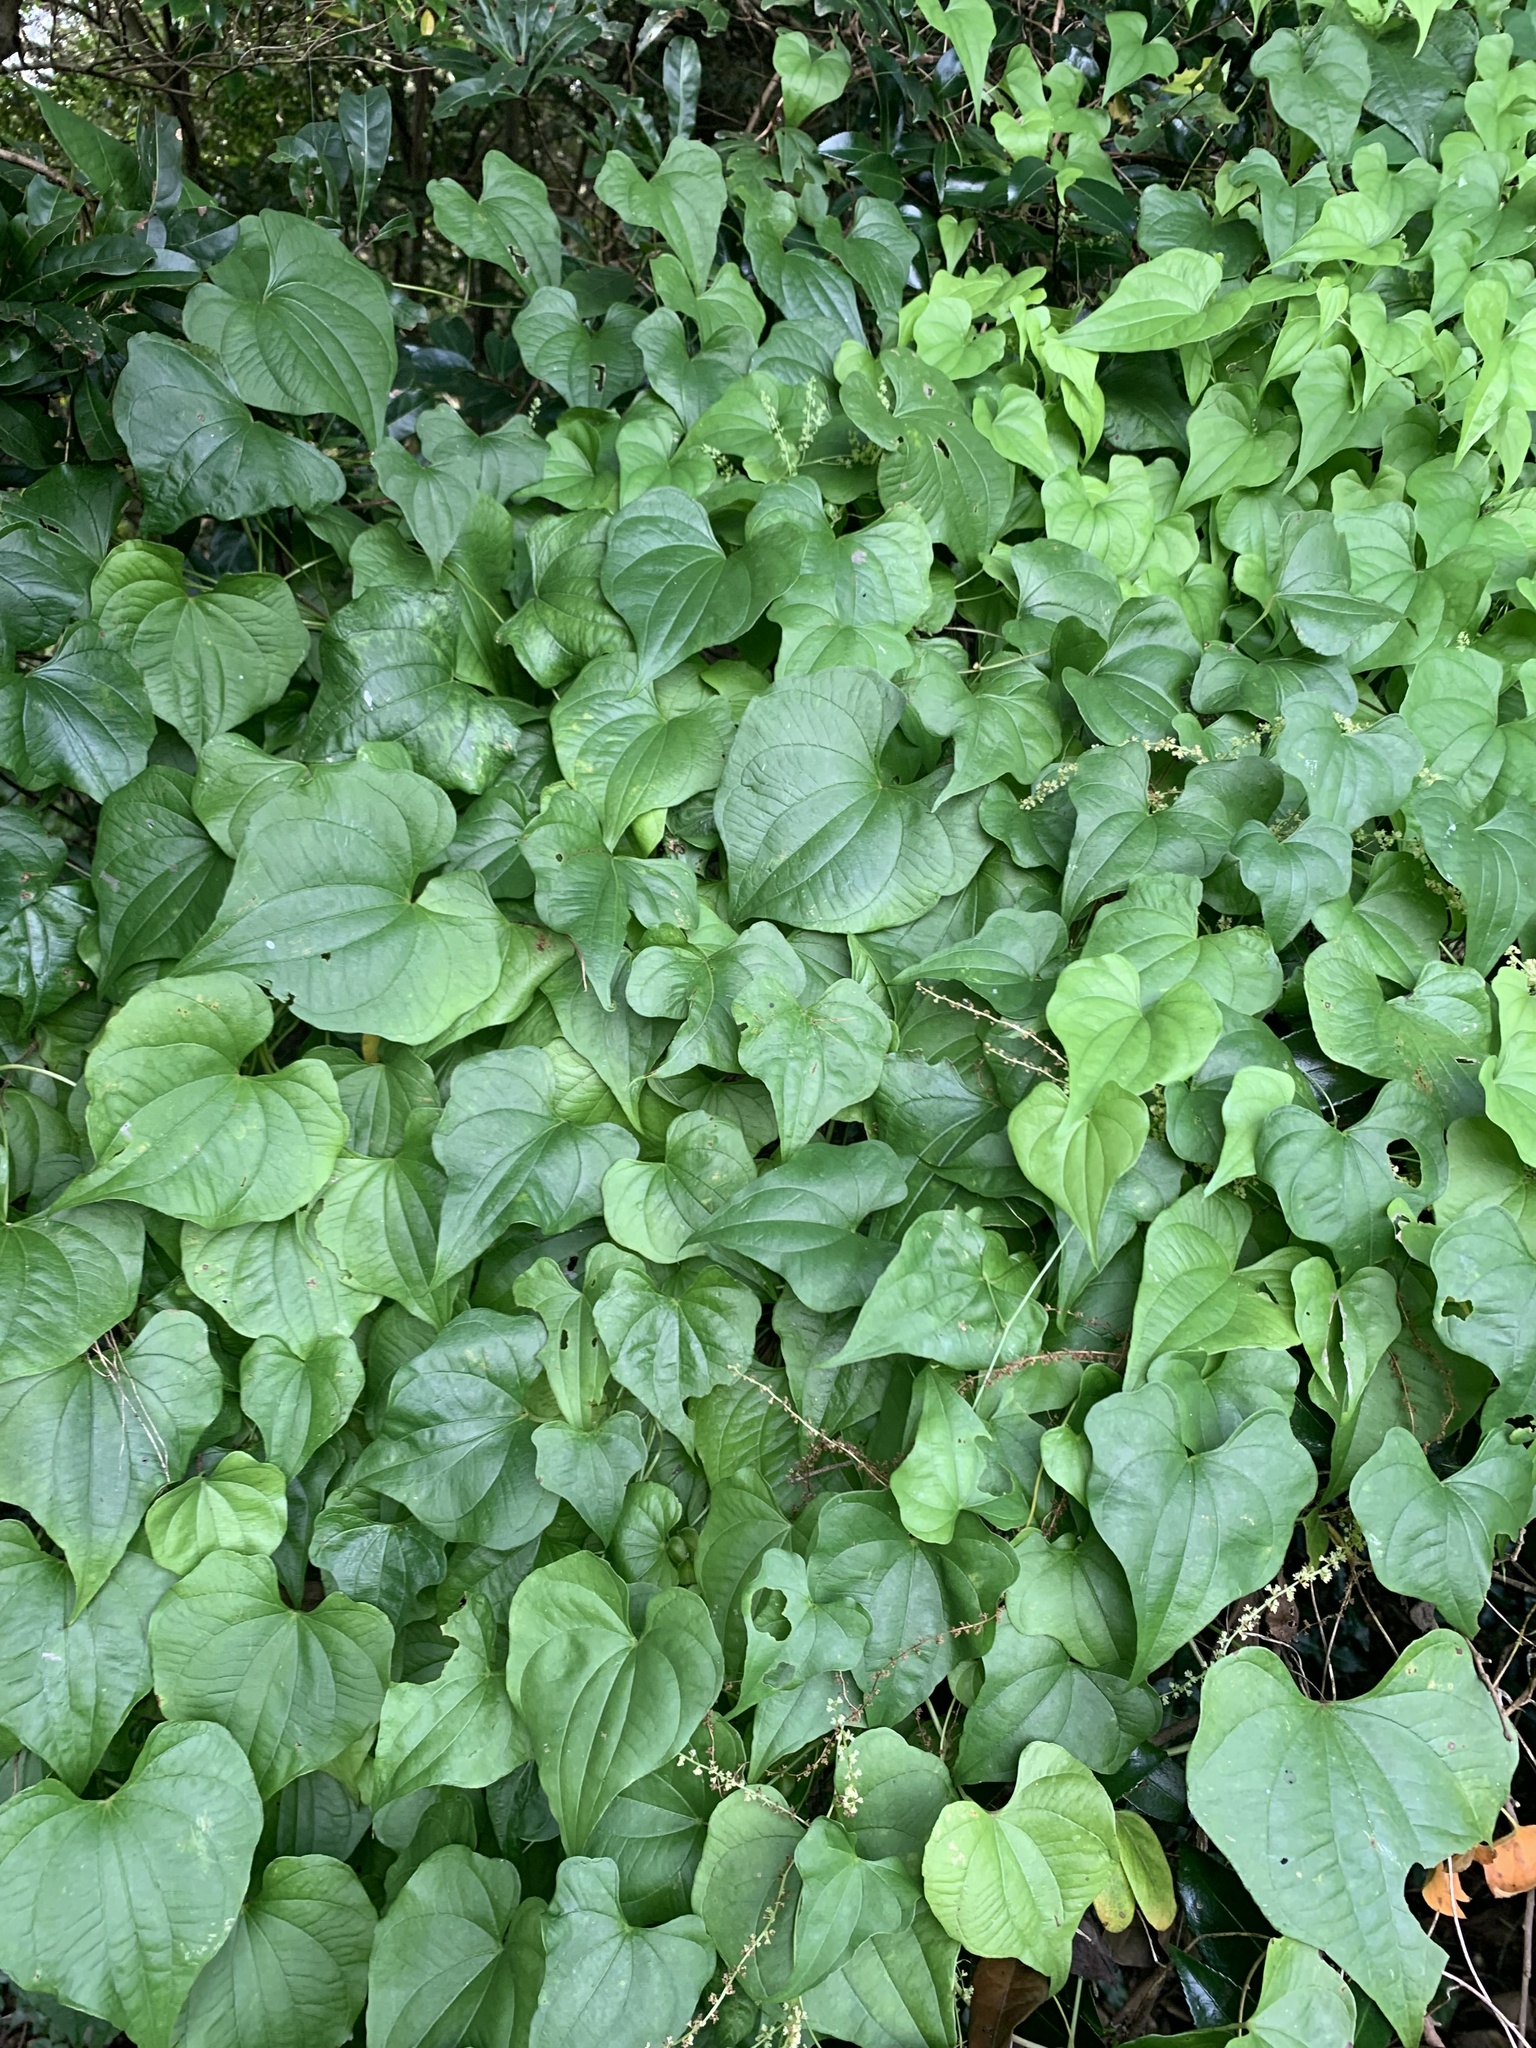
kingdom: Plantae
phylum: Tracheophyta
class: Liliopsida
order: Dioscoreales
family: Dioscoreaceae
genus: Dioscorea
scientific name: Dioscorea tokoro
